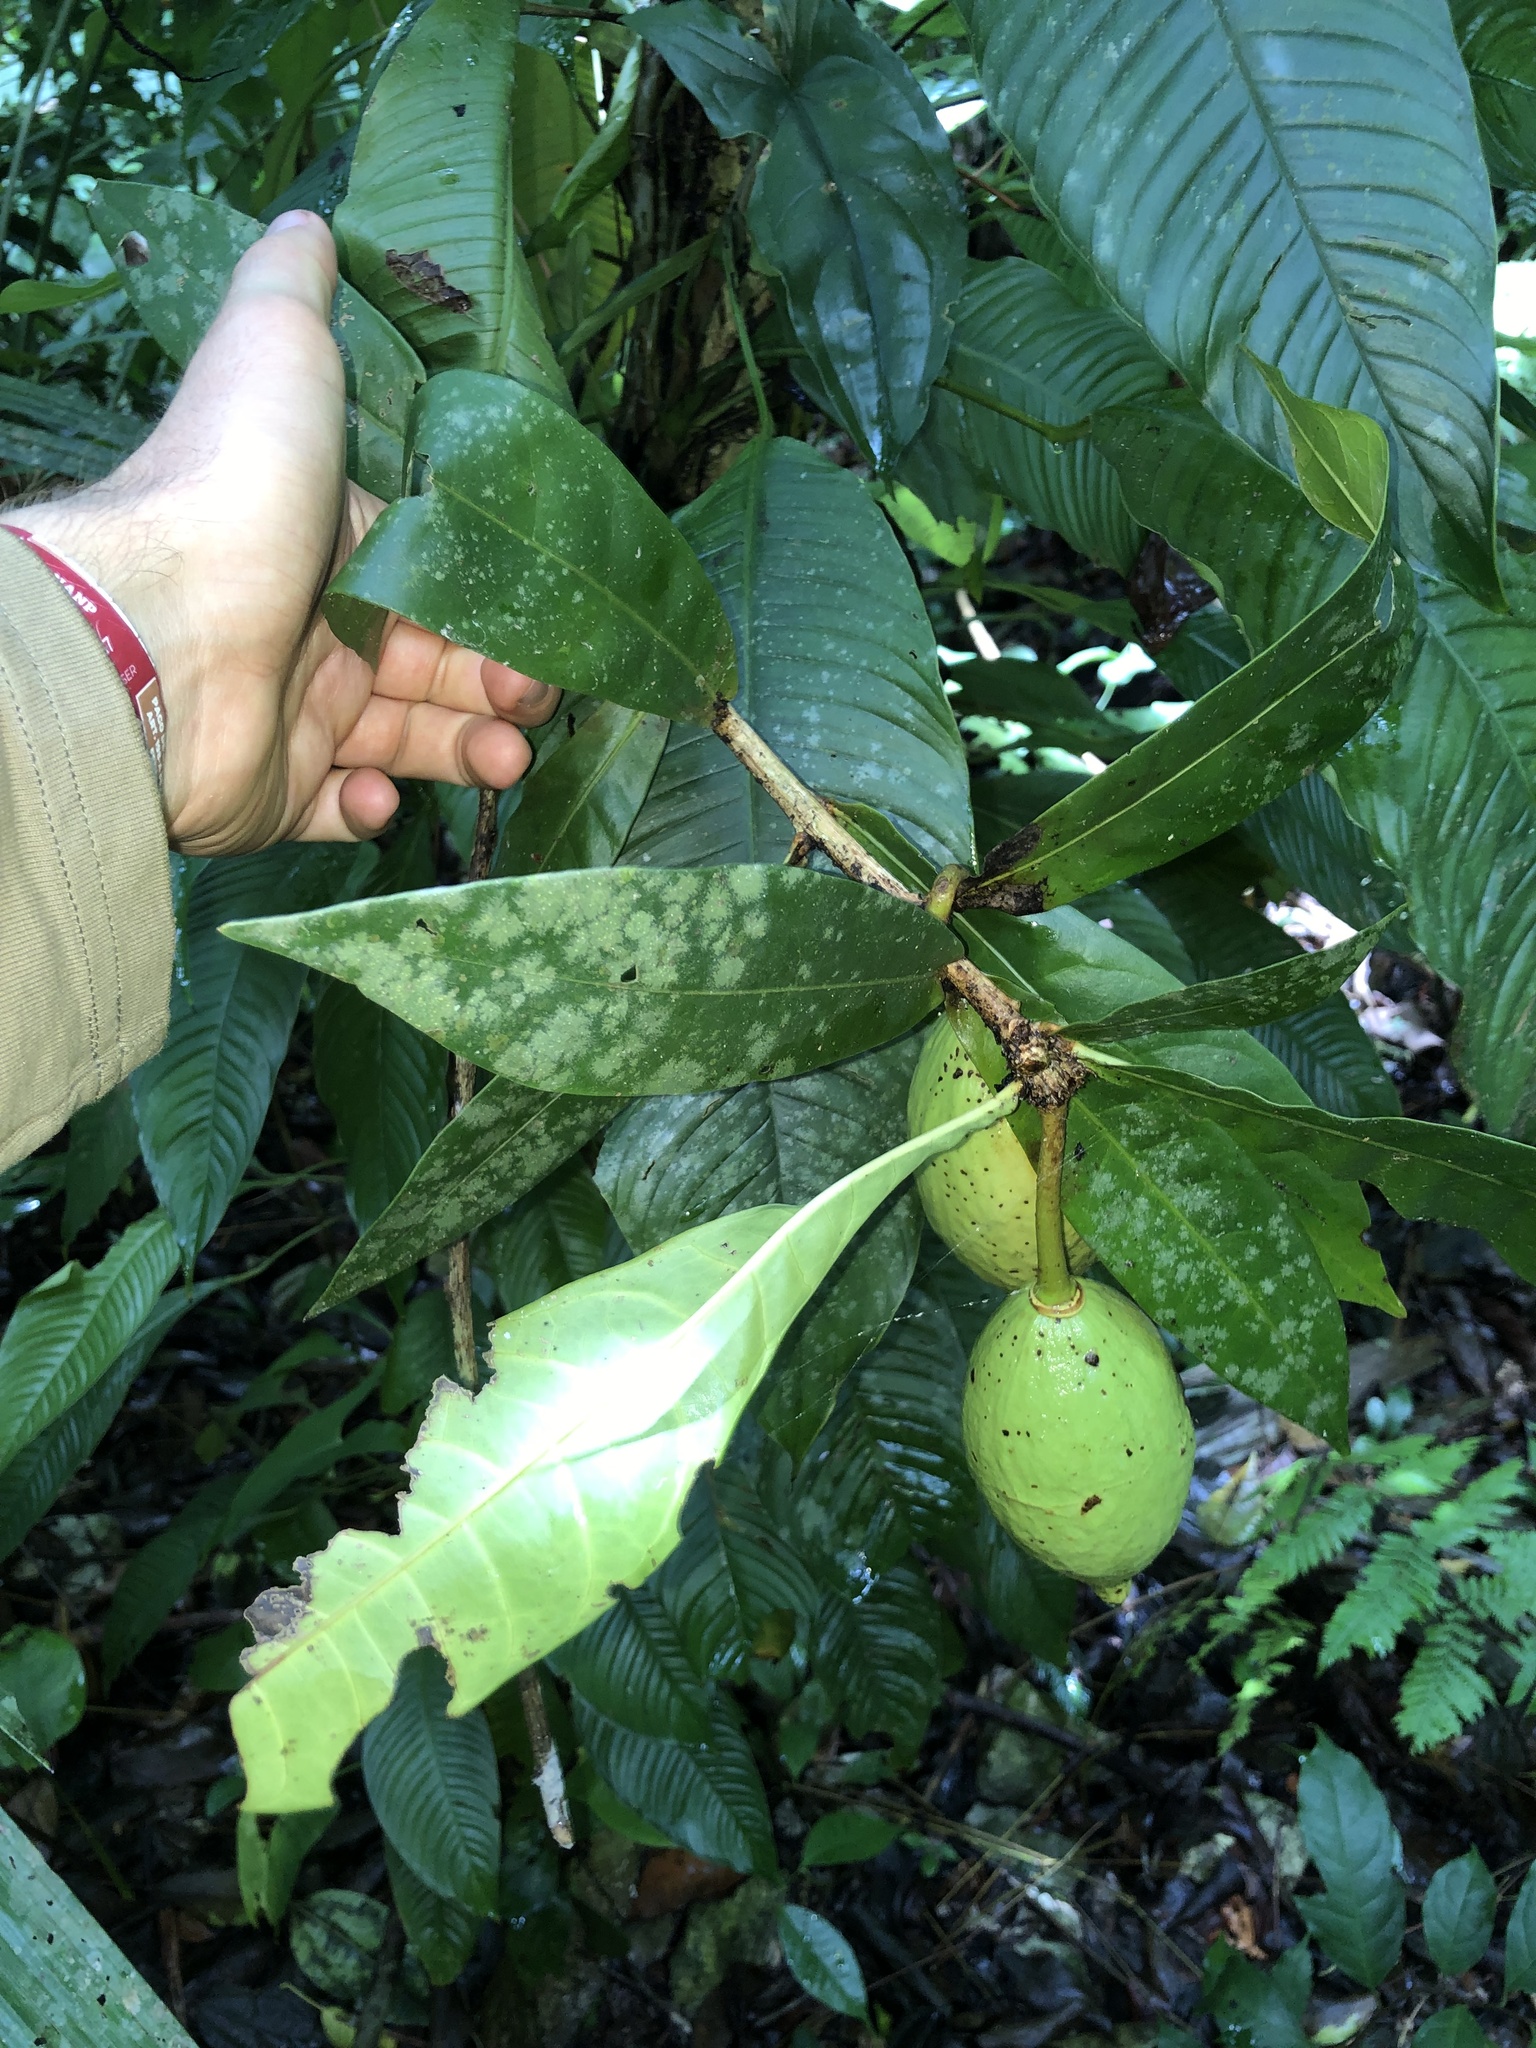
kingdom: Plantae
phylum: Tracheophyta
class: Magnoliopsida
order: Lamiales
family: Bignoniaceae
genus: Amphitecna
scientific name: Amphitecna apiculata
